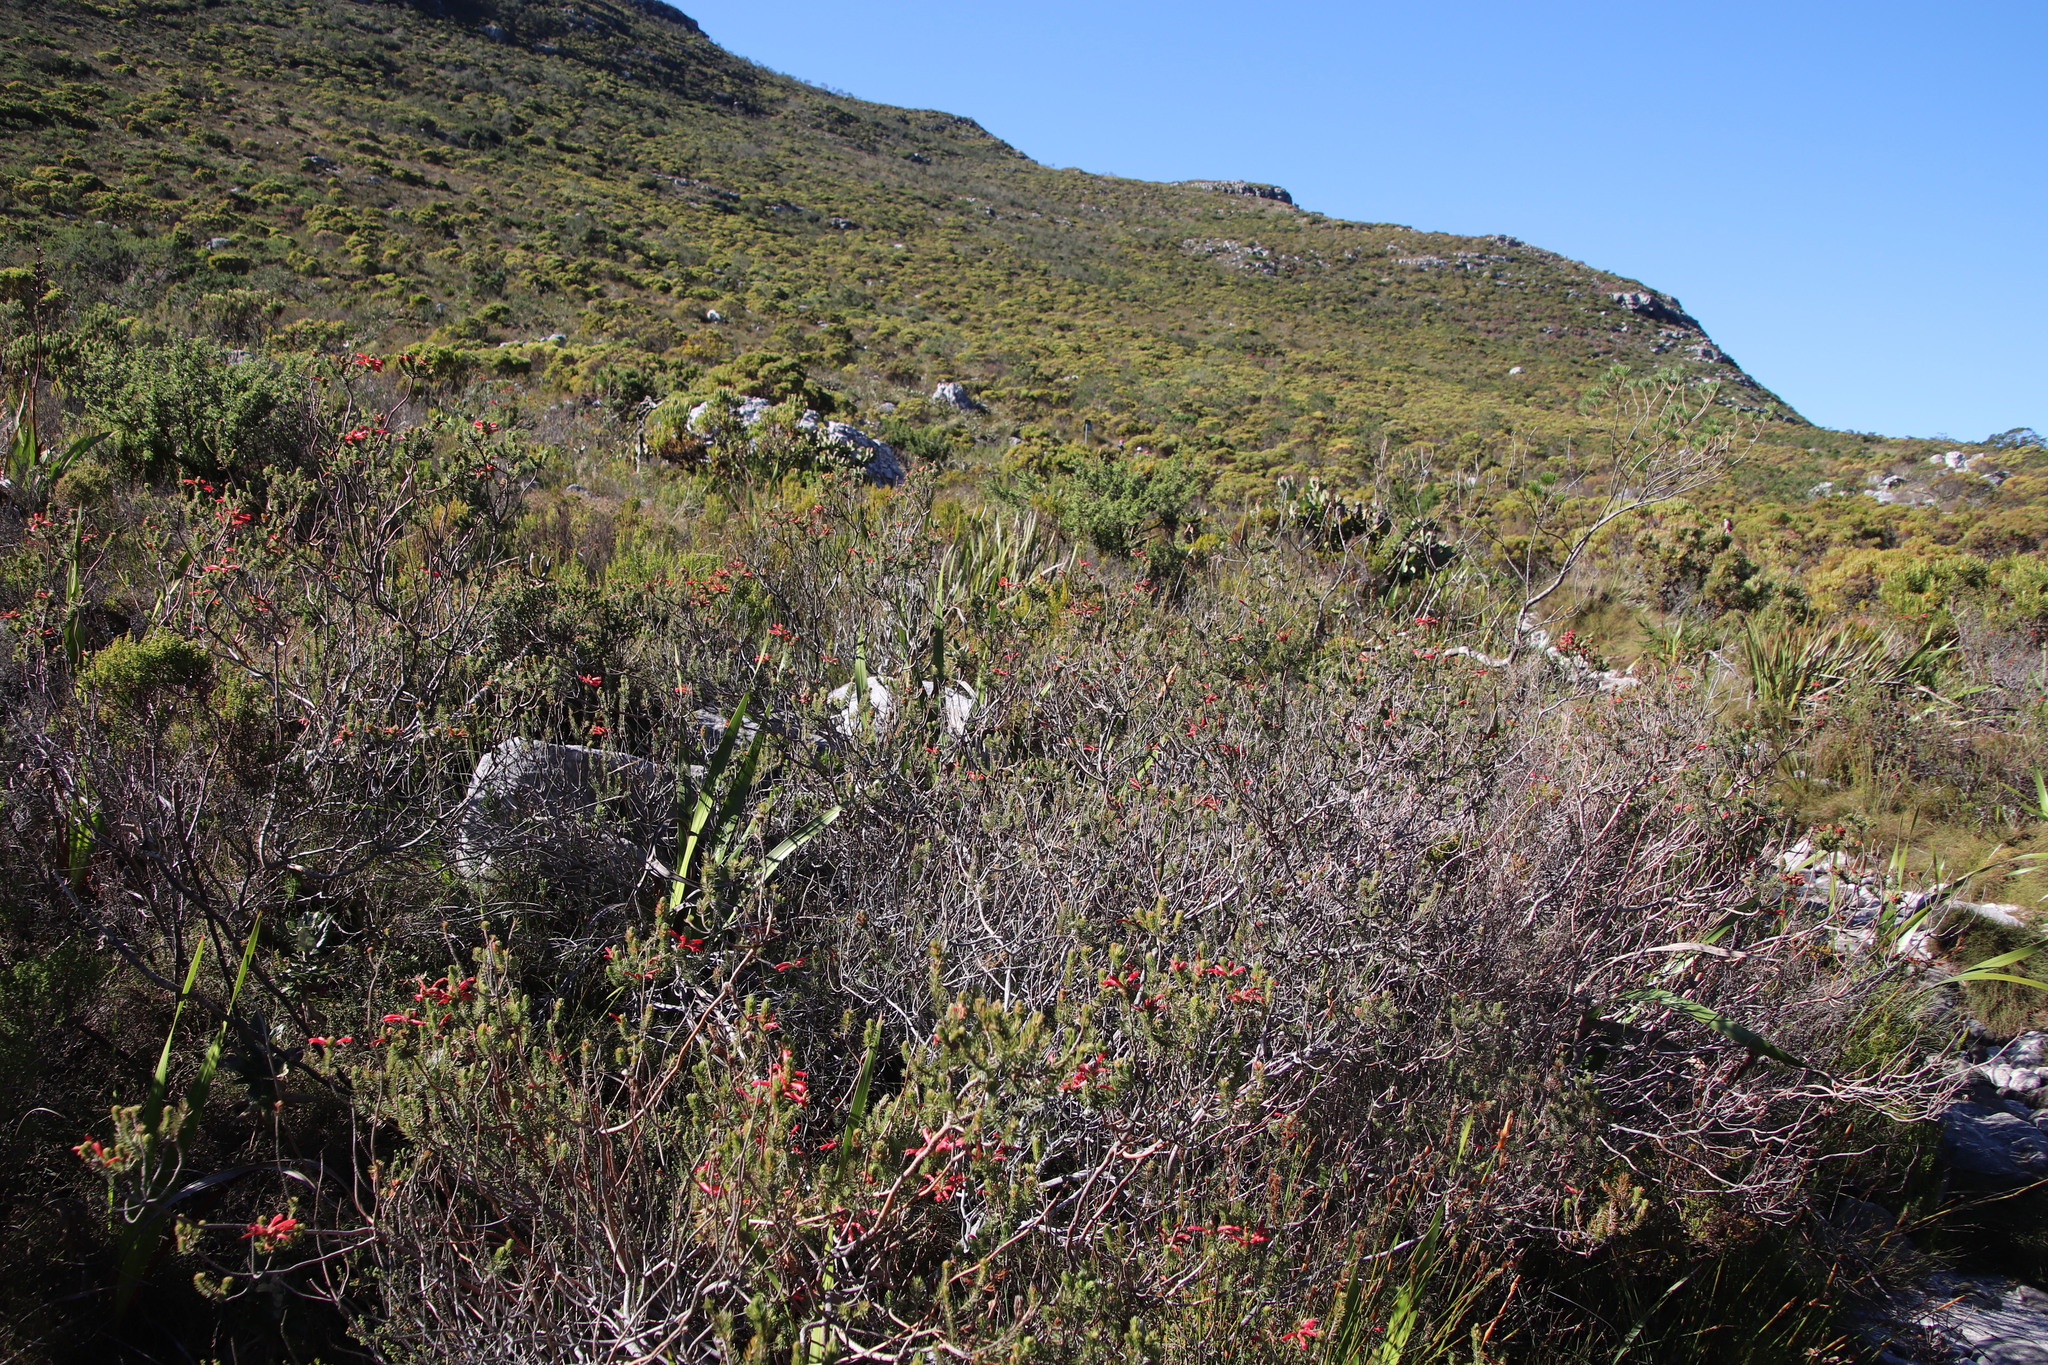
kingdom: Plantae
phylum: Tracheophyta
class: Magnoliopsida
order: Ericales
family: Ericaceae
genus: Erica
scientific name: Erica abietina
